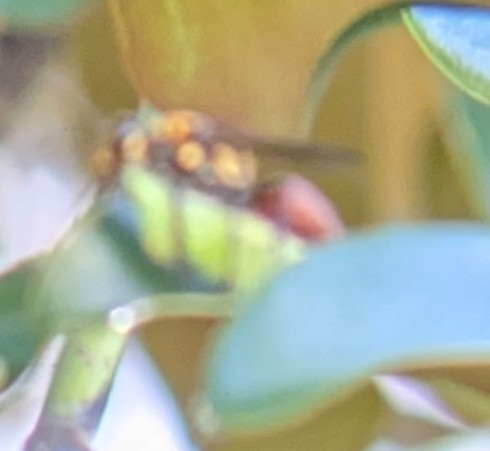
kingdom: Animalia
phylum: Arthropoda
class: Insecta
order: Hymenoptera
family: Sphecidae
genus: Sphex
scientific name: Sphex habenus
